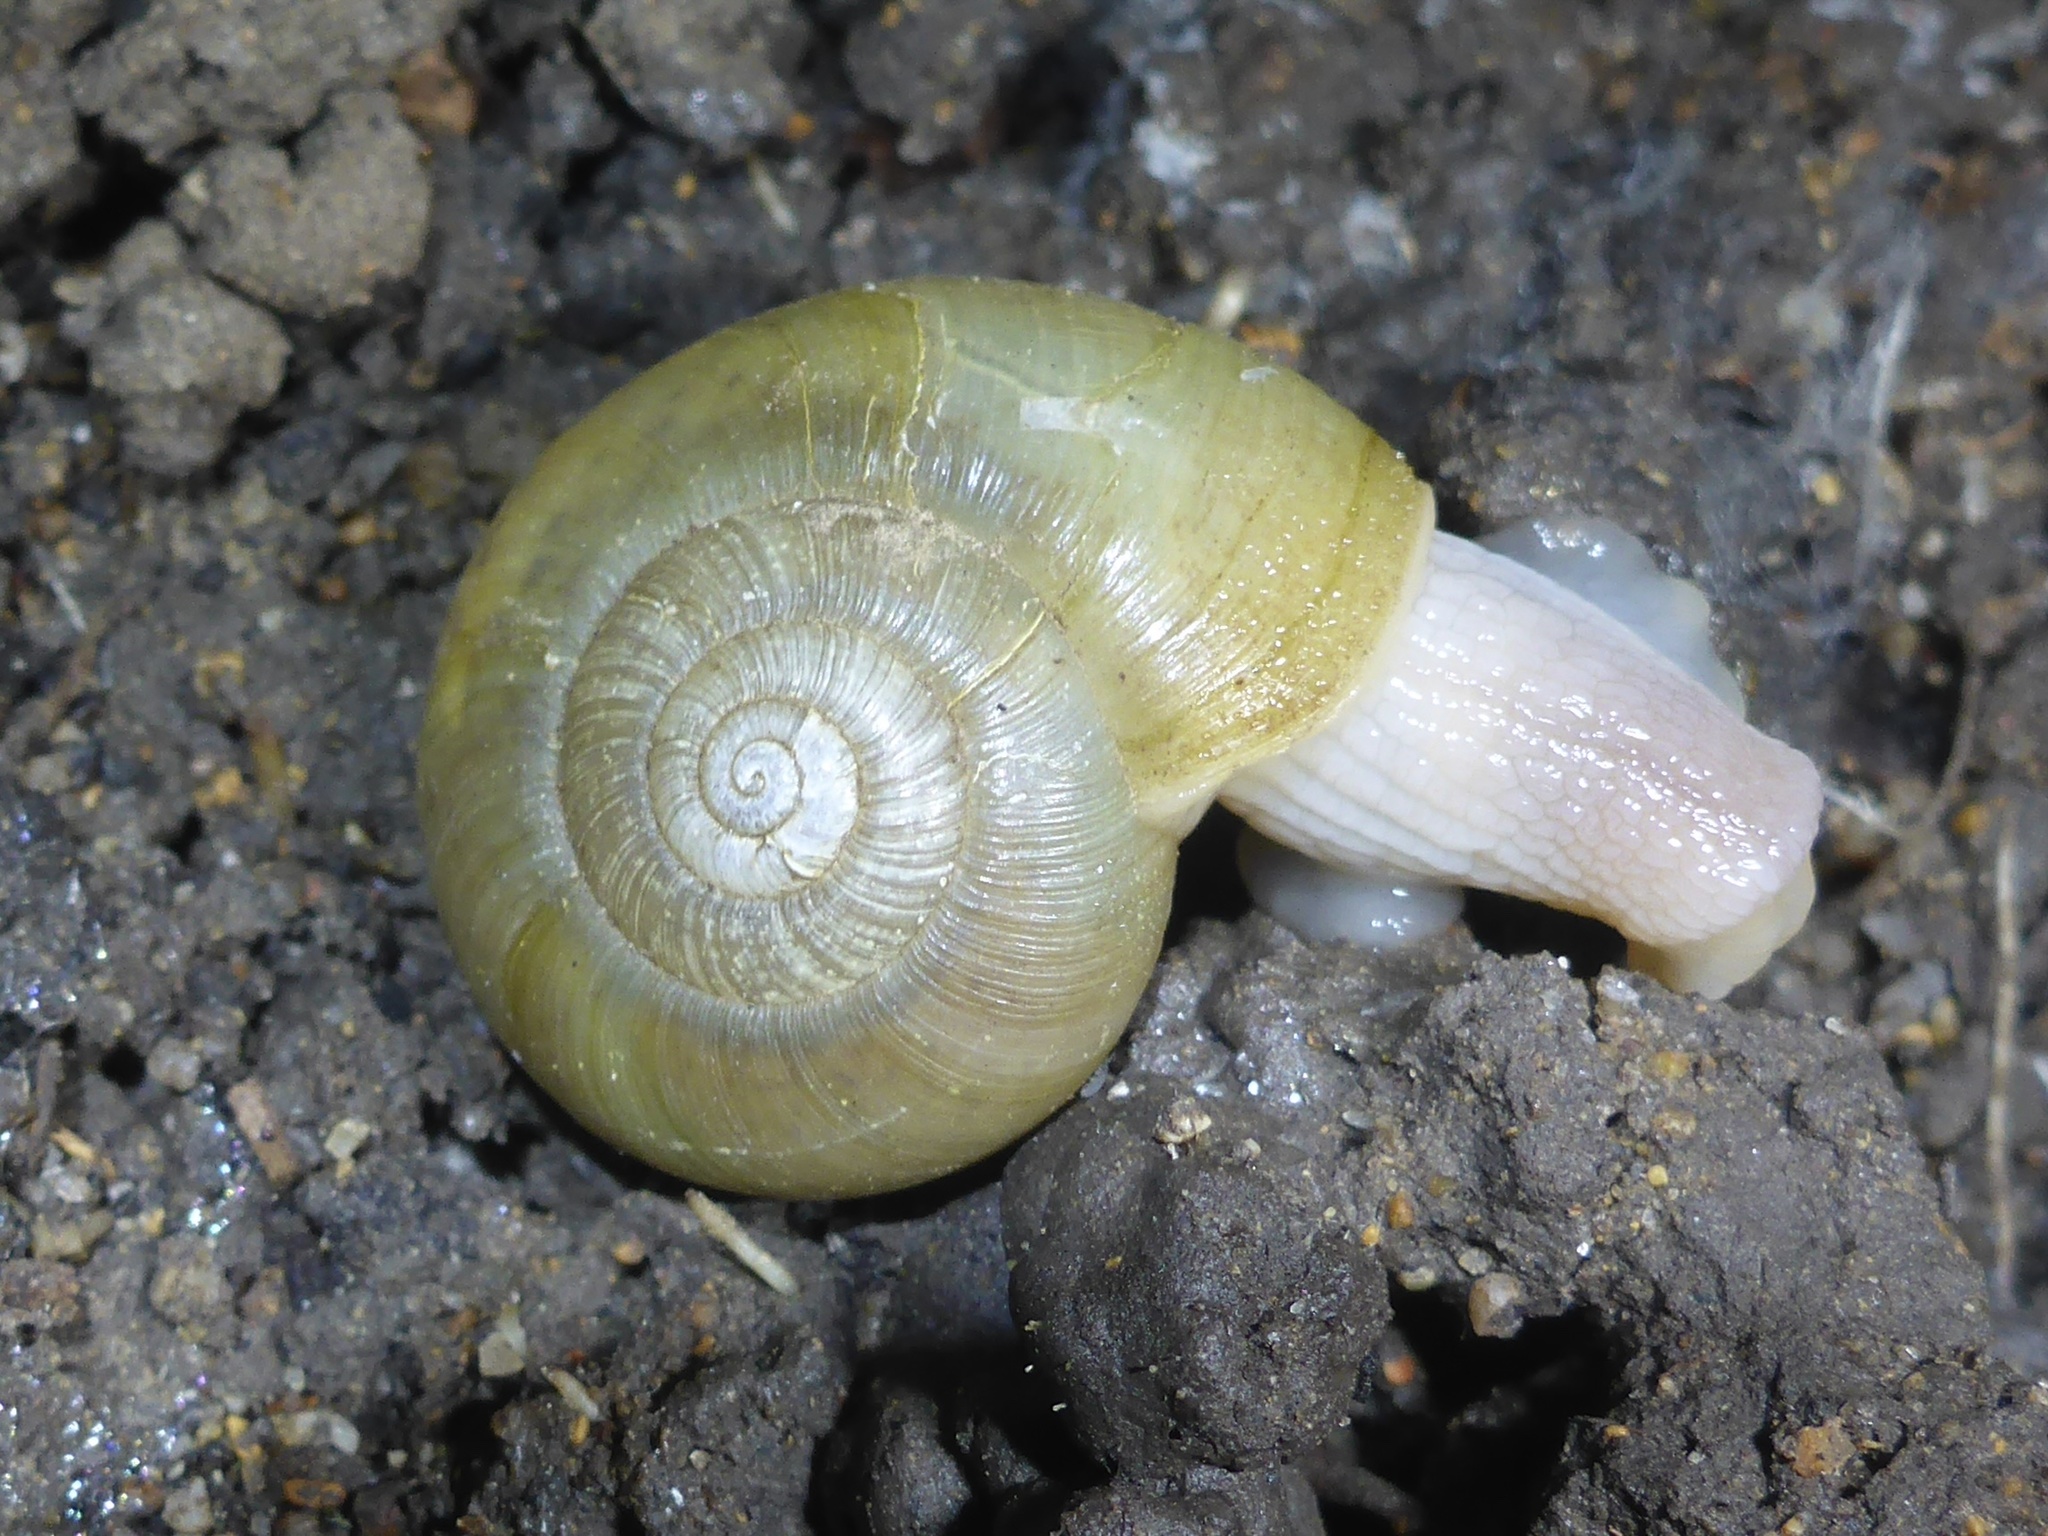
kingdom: Animalia
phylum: Mollusca
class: Gastropoda
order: Stylommatophora
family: Haplotrematidae
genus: Haplotrema
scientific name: Haplotrema minimum
